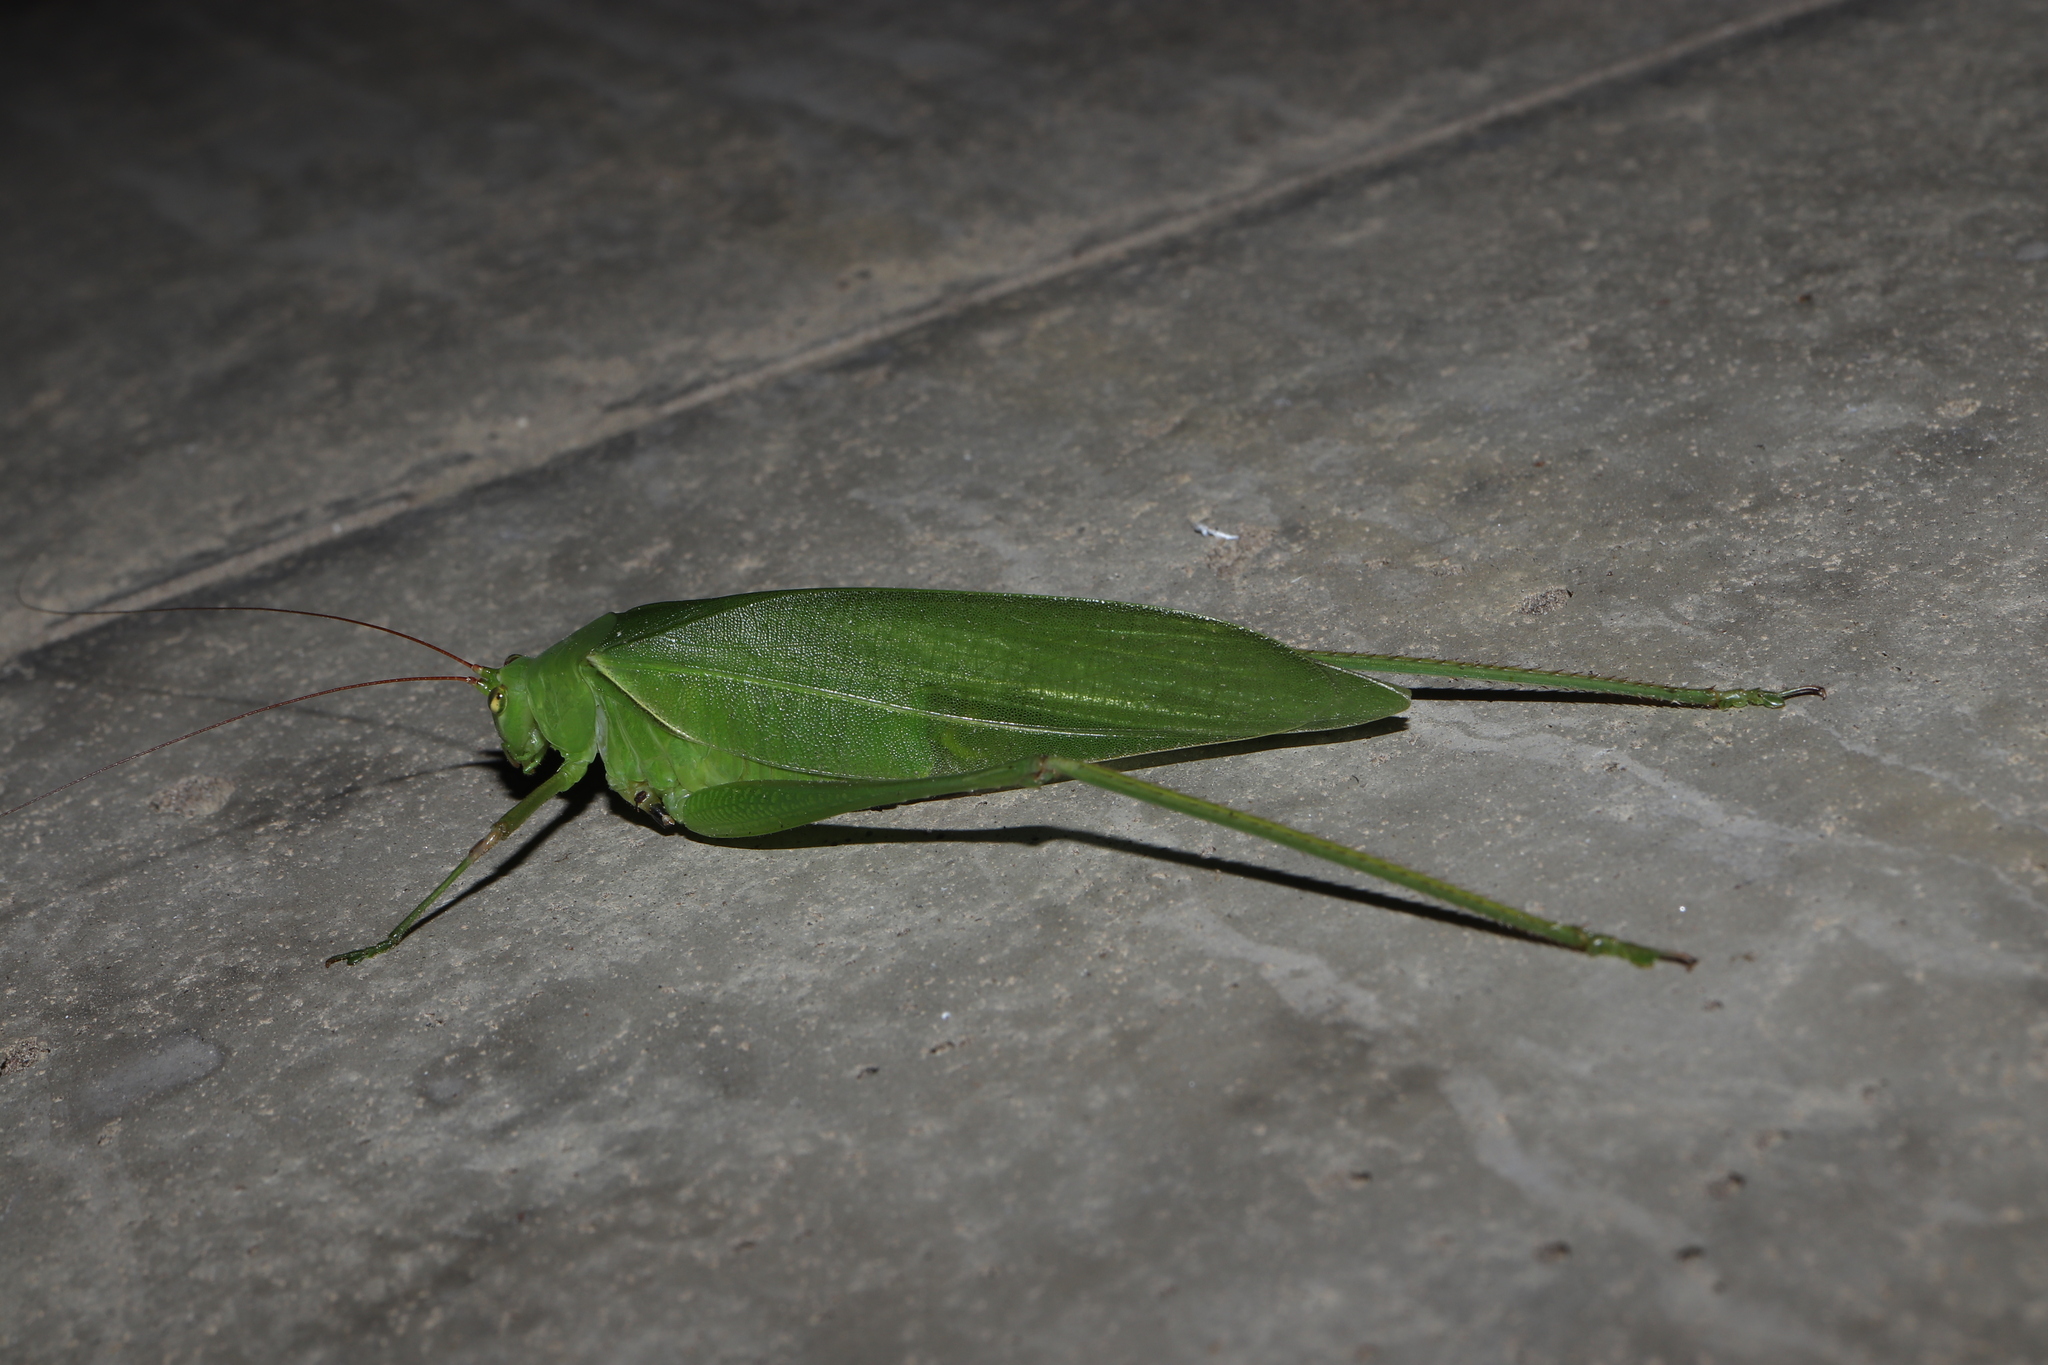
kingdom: Animalia
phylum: Arthropoda
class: Insecta
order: Orthoptera
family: Tettigoniidae
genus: Holochlora
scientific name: Holochlora japonica
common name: Japanese broadwinged katydid
